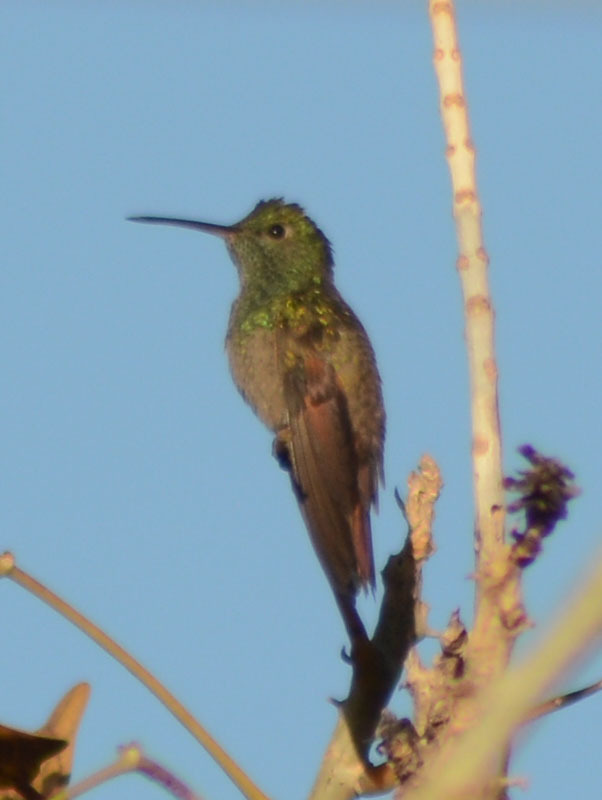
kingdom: Animalia
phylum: Chordata
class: Aves
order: Apodiformes
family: Trochilidae
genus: Saucerottia
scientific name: Saucerottia beryllina
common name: Berylline hummingbird
